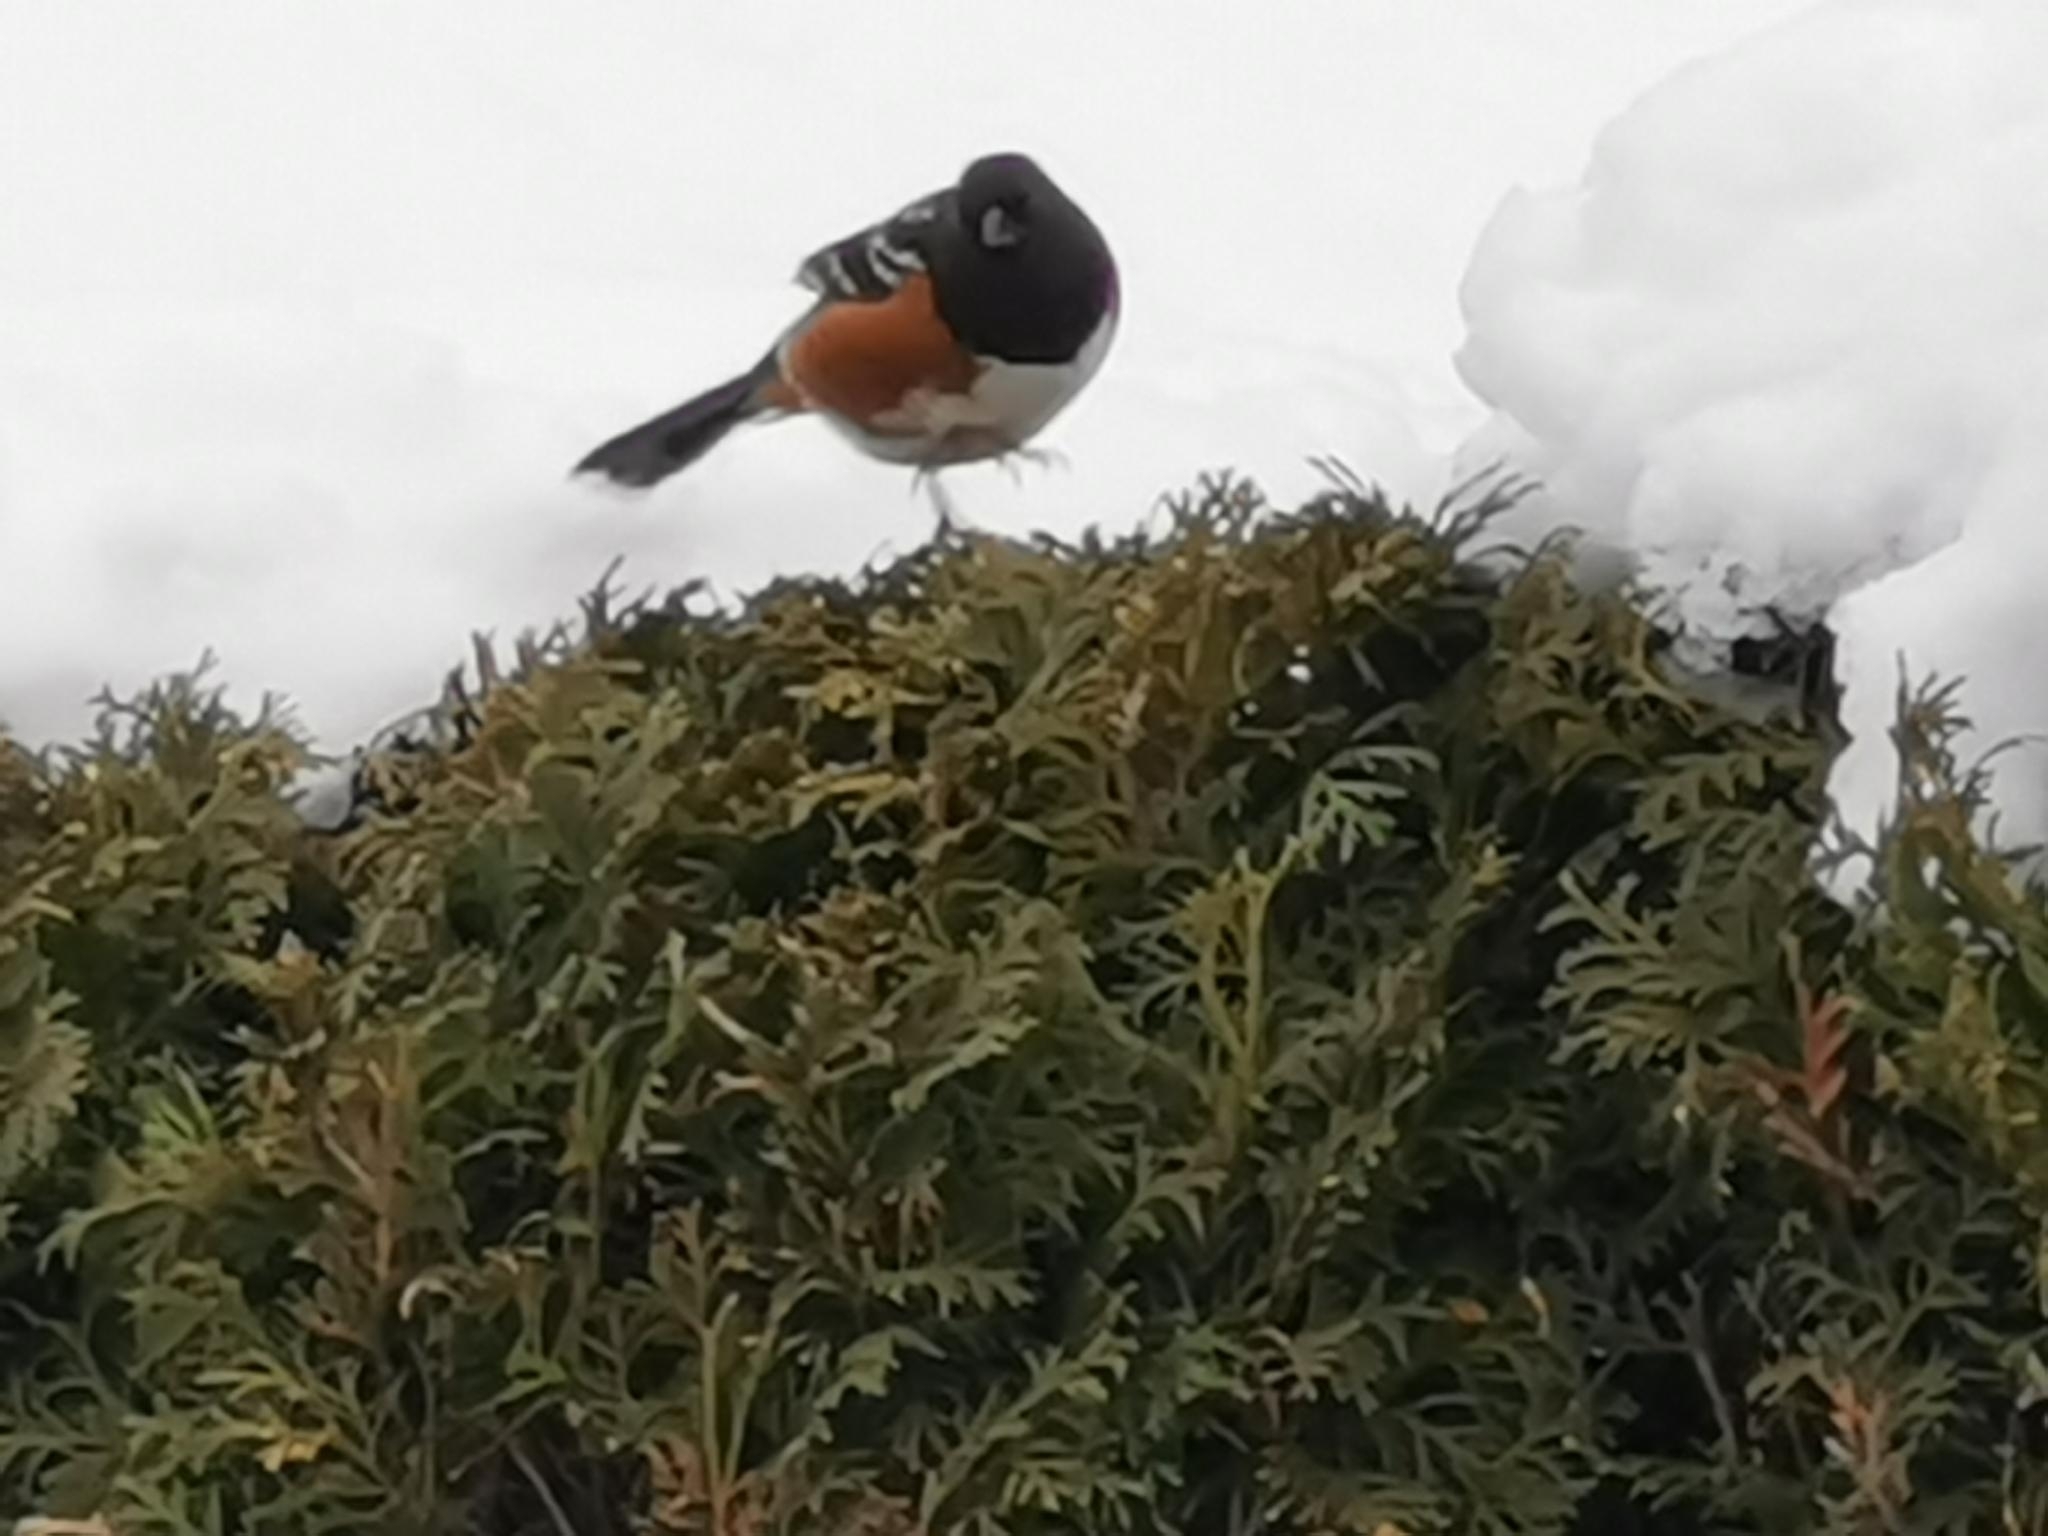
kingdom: Animalia
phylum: Chordata
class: Aves
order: Passeriformes
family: Passerellidae
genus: Pipilo
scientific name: Pipilo maculatus
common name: Spotted towhee
